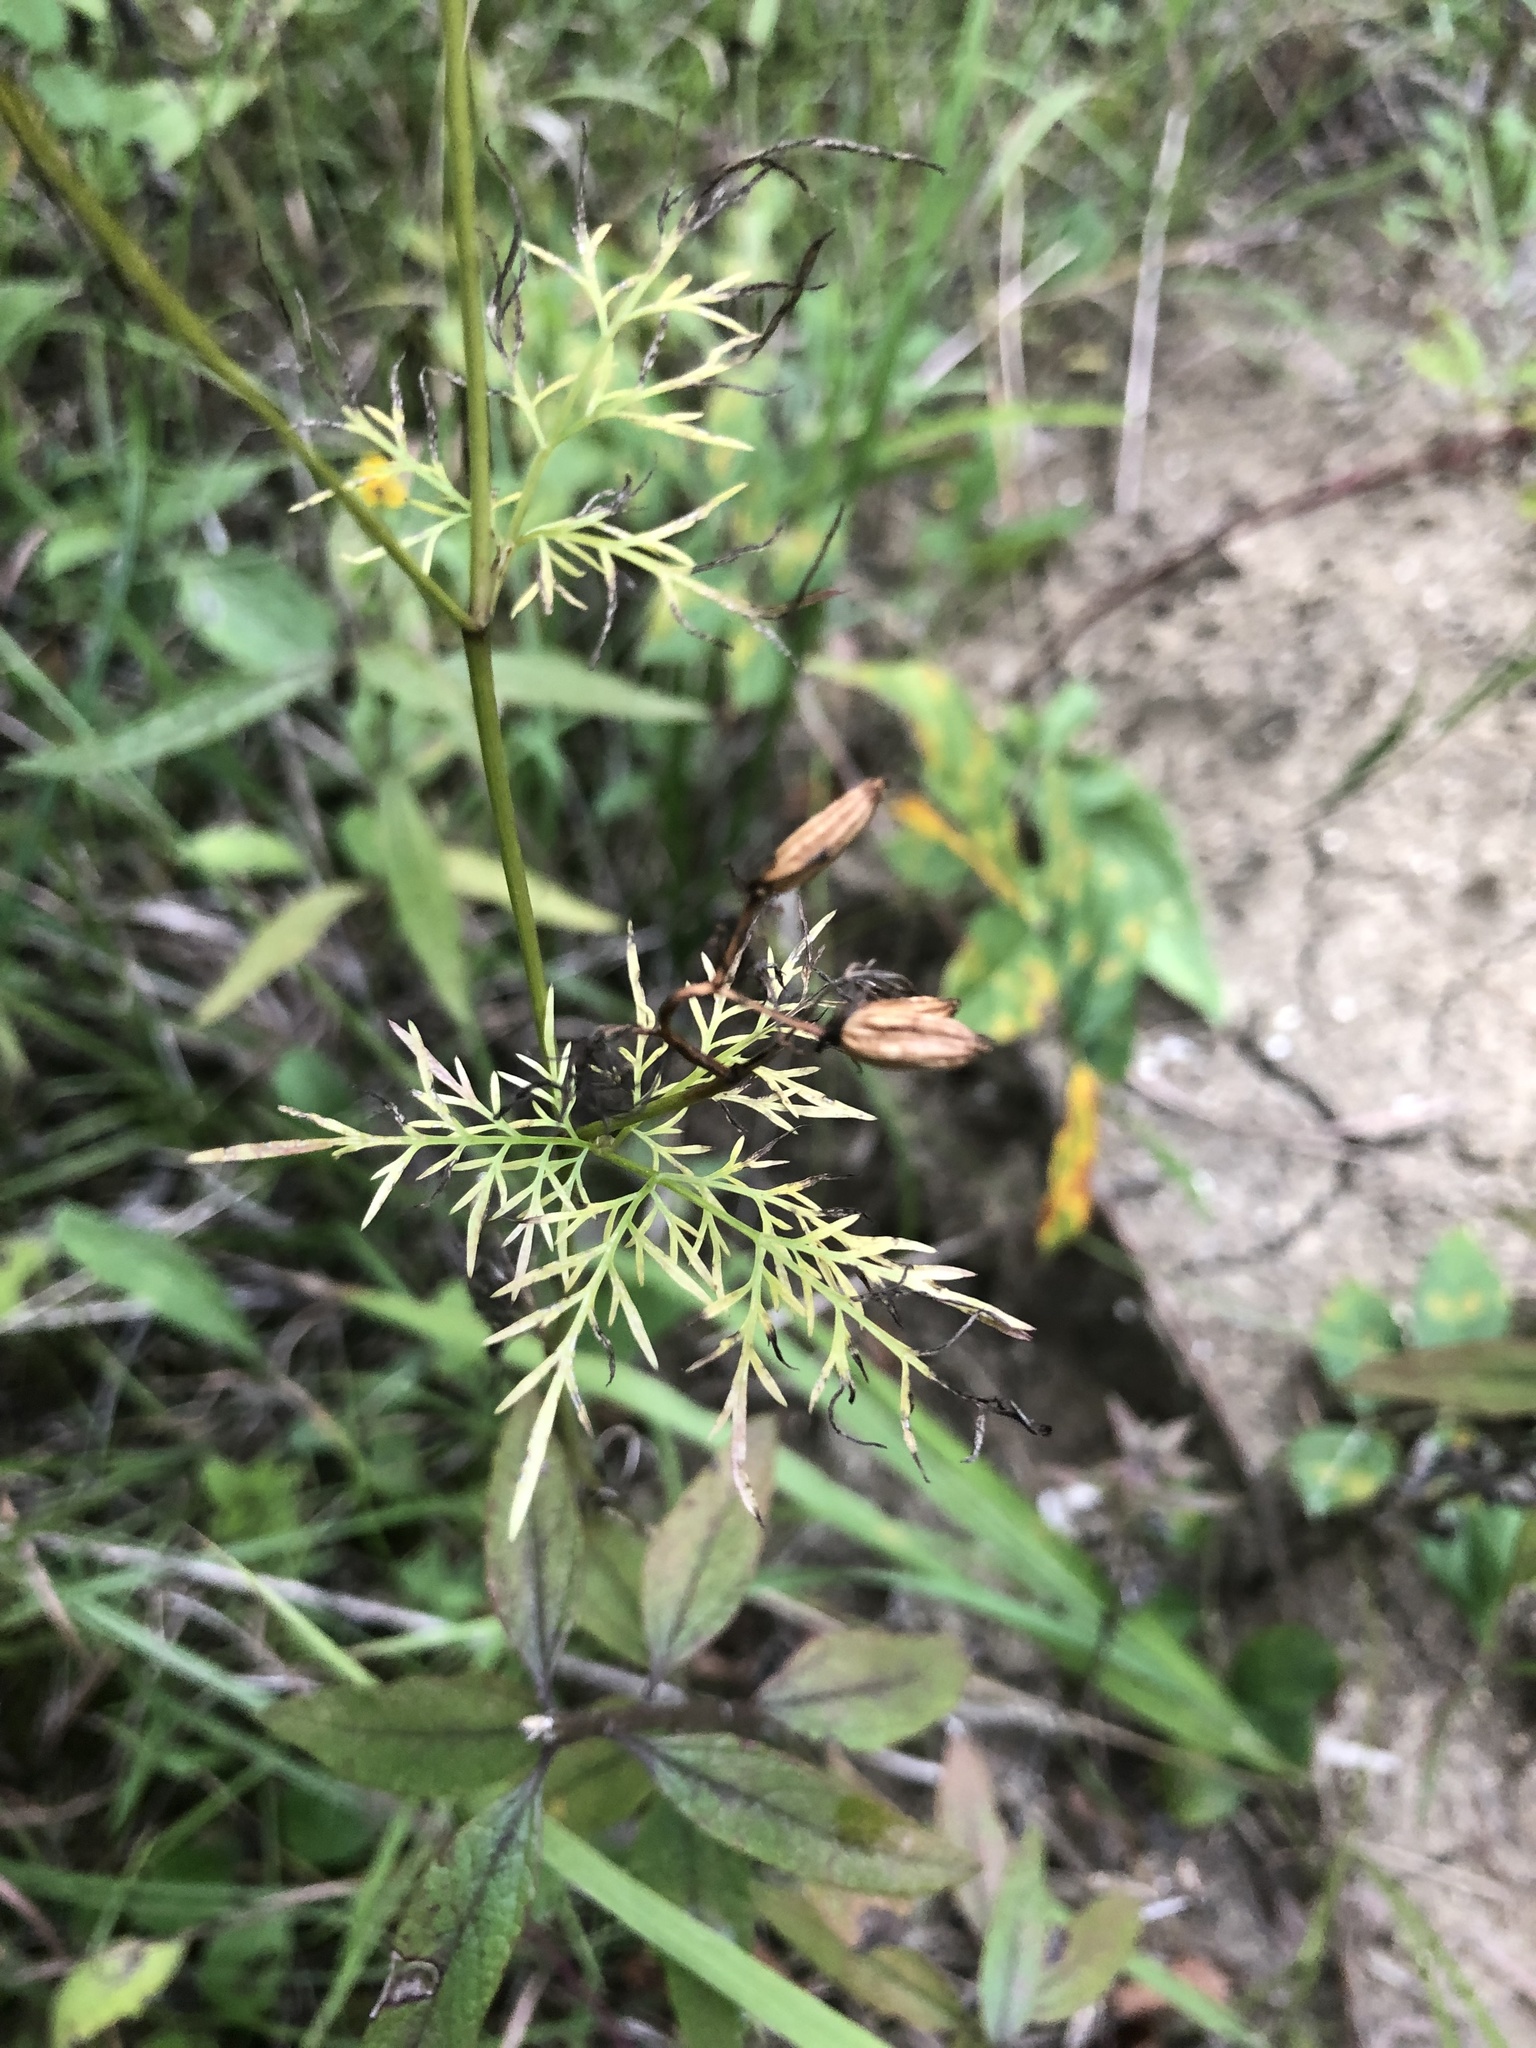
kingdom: Plantae
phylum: Tracheophyta
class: Magnoliopsida
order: Apiales
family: Apiaceae
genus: Trepocarpus
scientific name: Trepocarpus aethusae
